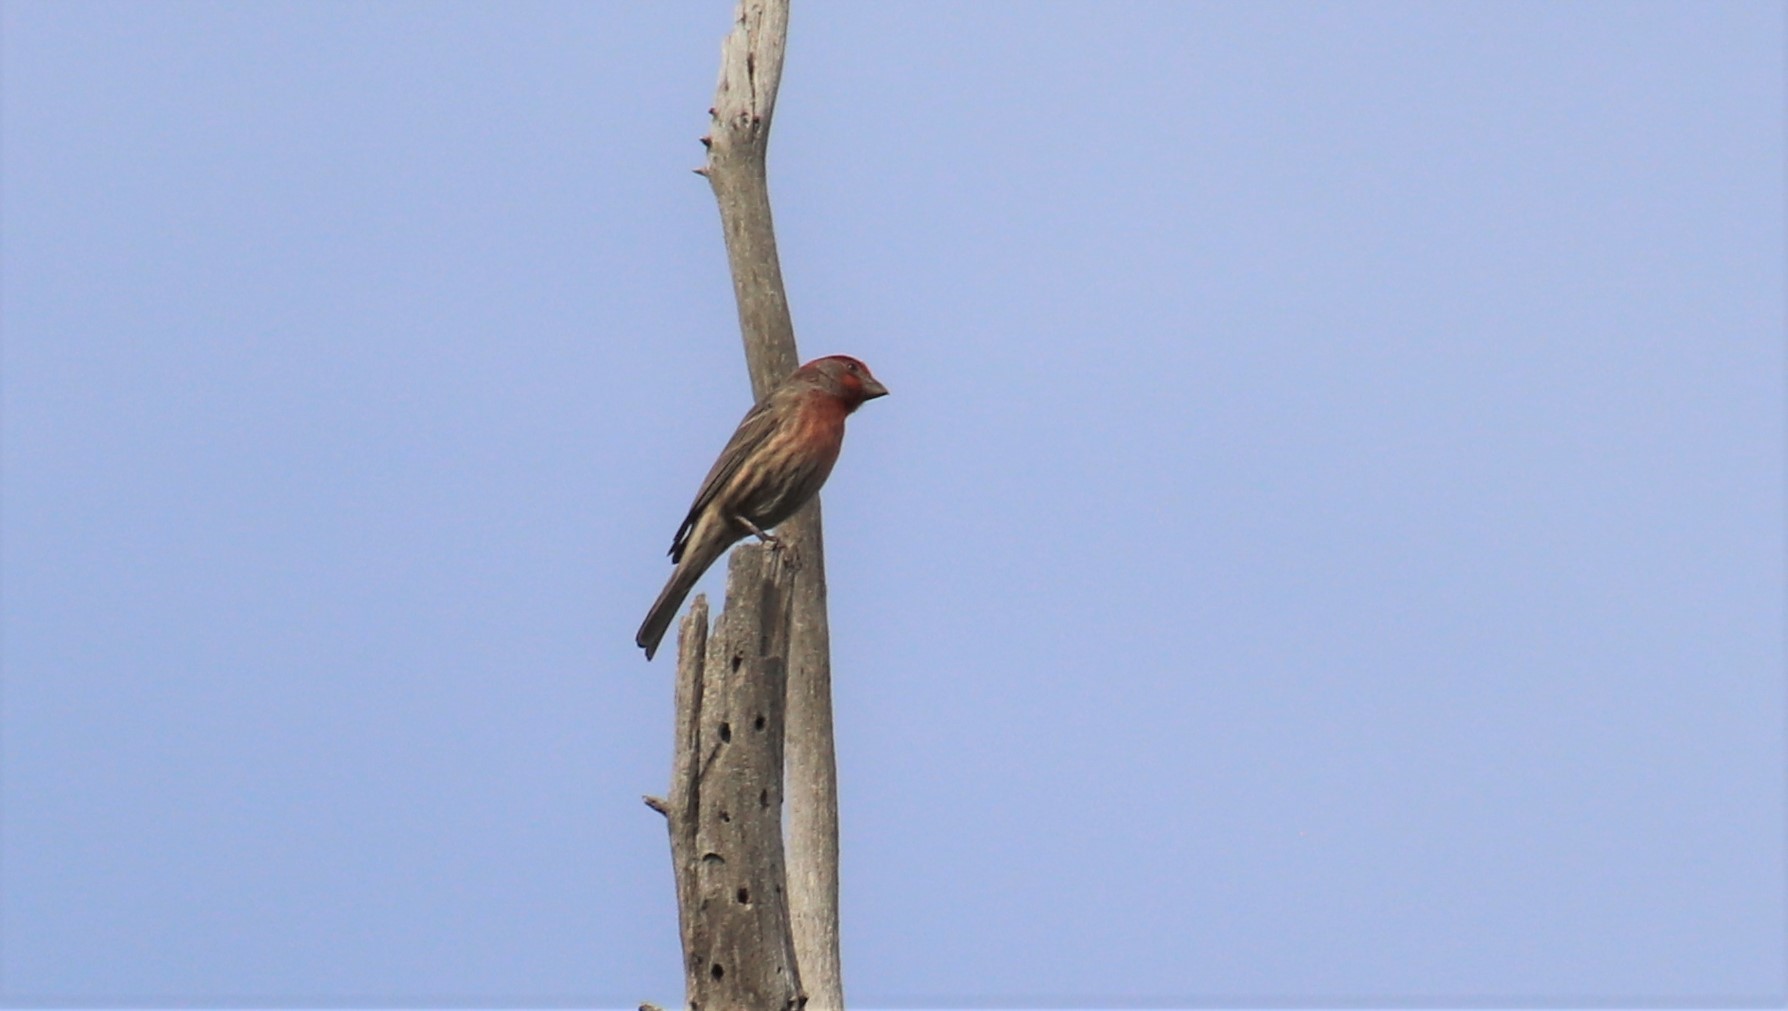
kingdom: Animalia
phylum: Chordata
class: Aves
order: Passeriformes
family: Fringillidae
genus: Haemorhous
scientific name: Haemorhous mexicanus
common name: House finch
